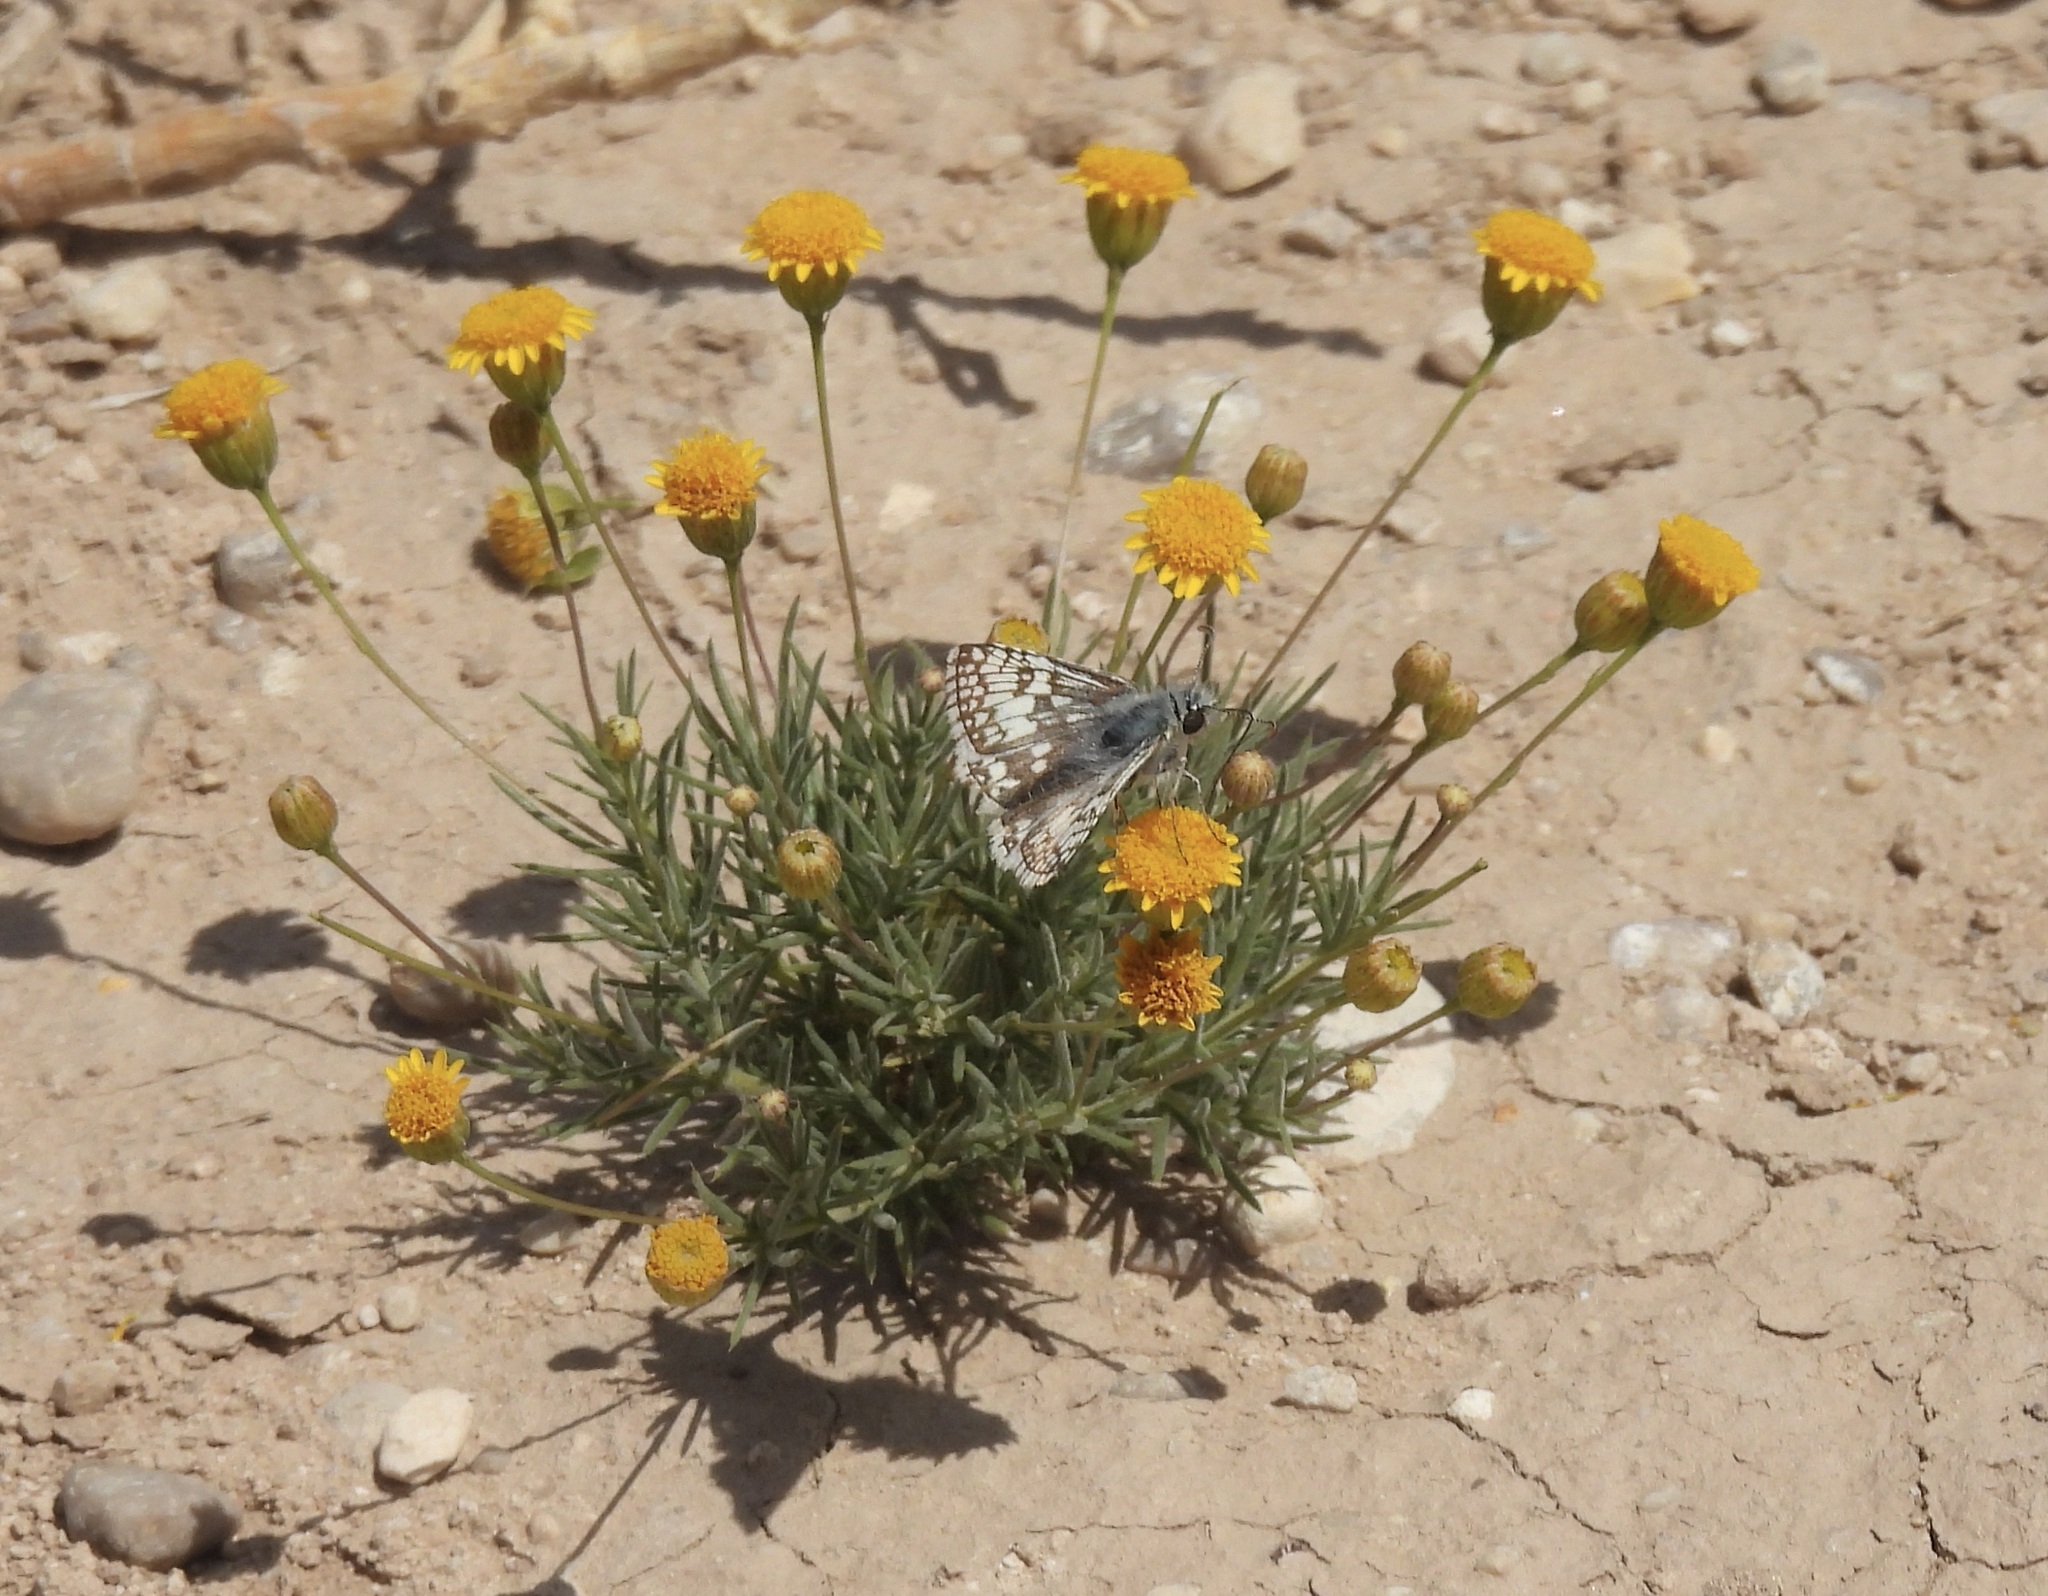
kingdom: Animalia
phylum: Arthropoda
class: Insecta
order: Lepidoptera
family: Hesperiidae
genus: Burnsius
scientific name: Burnsius
